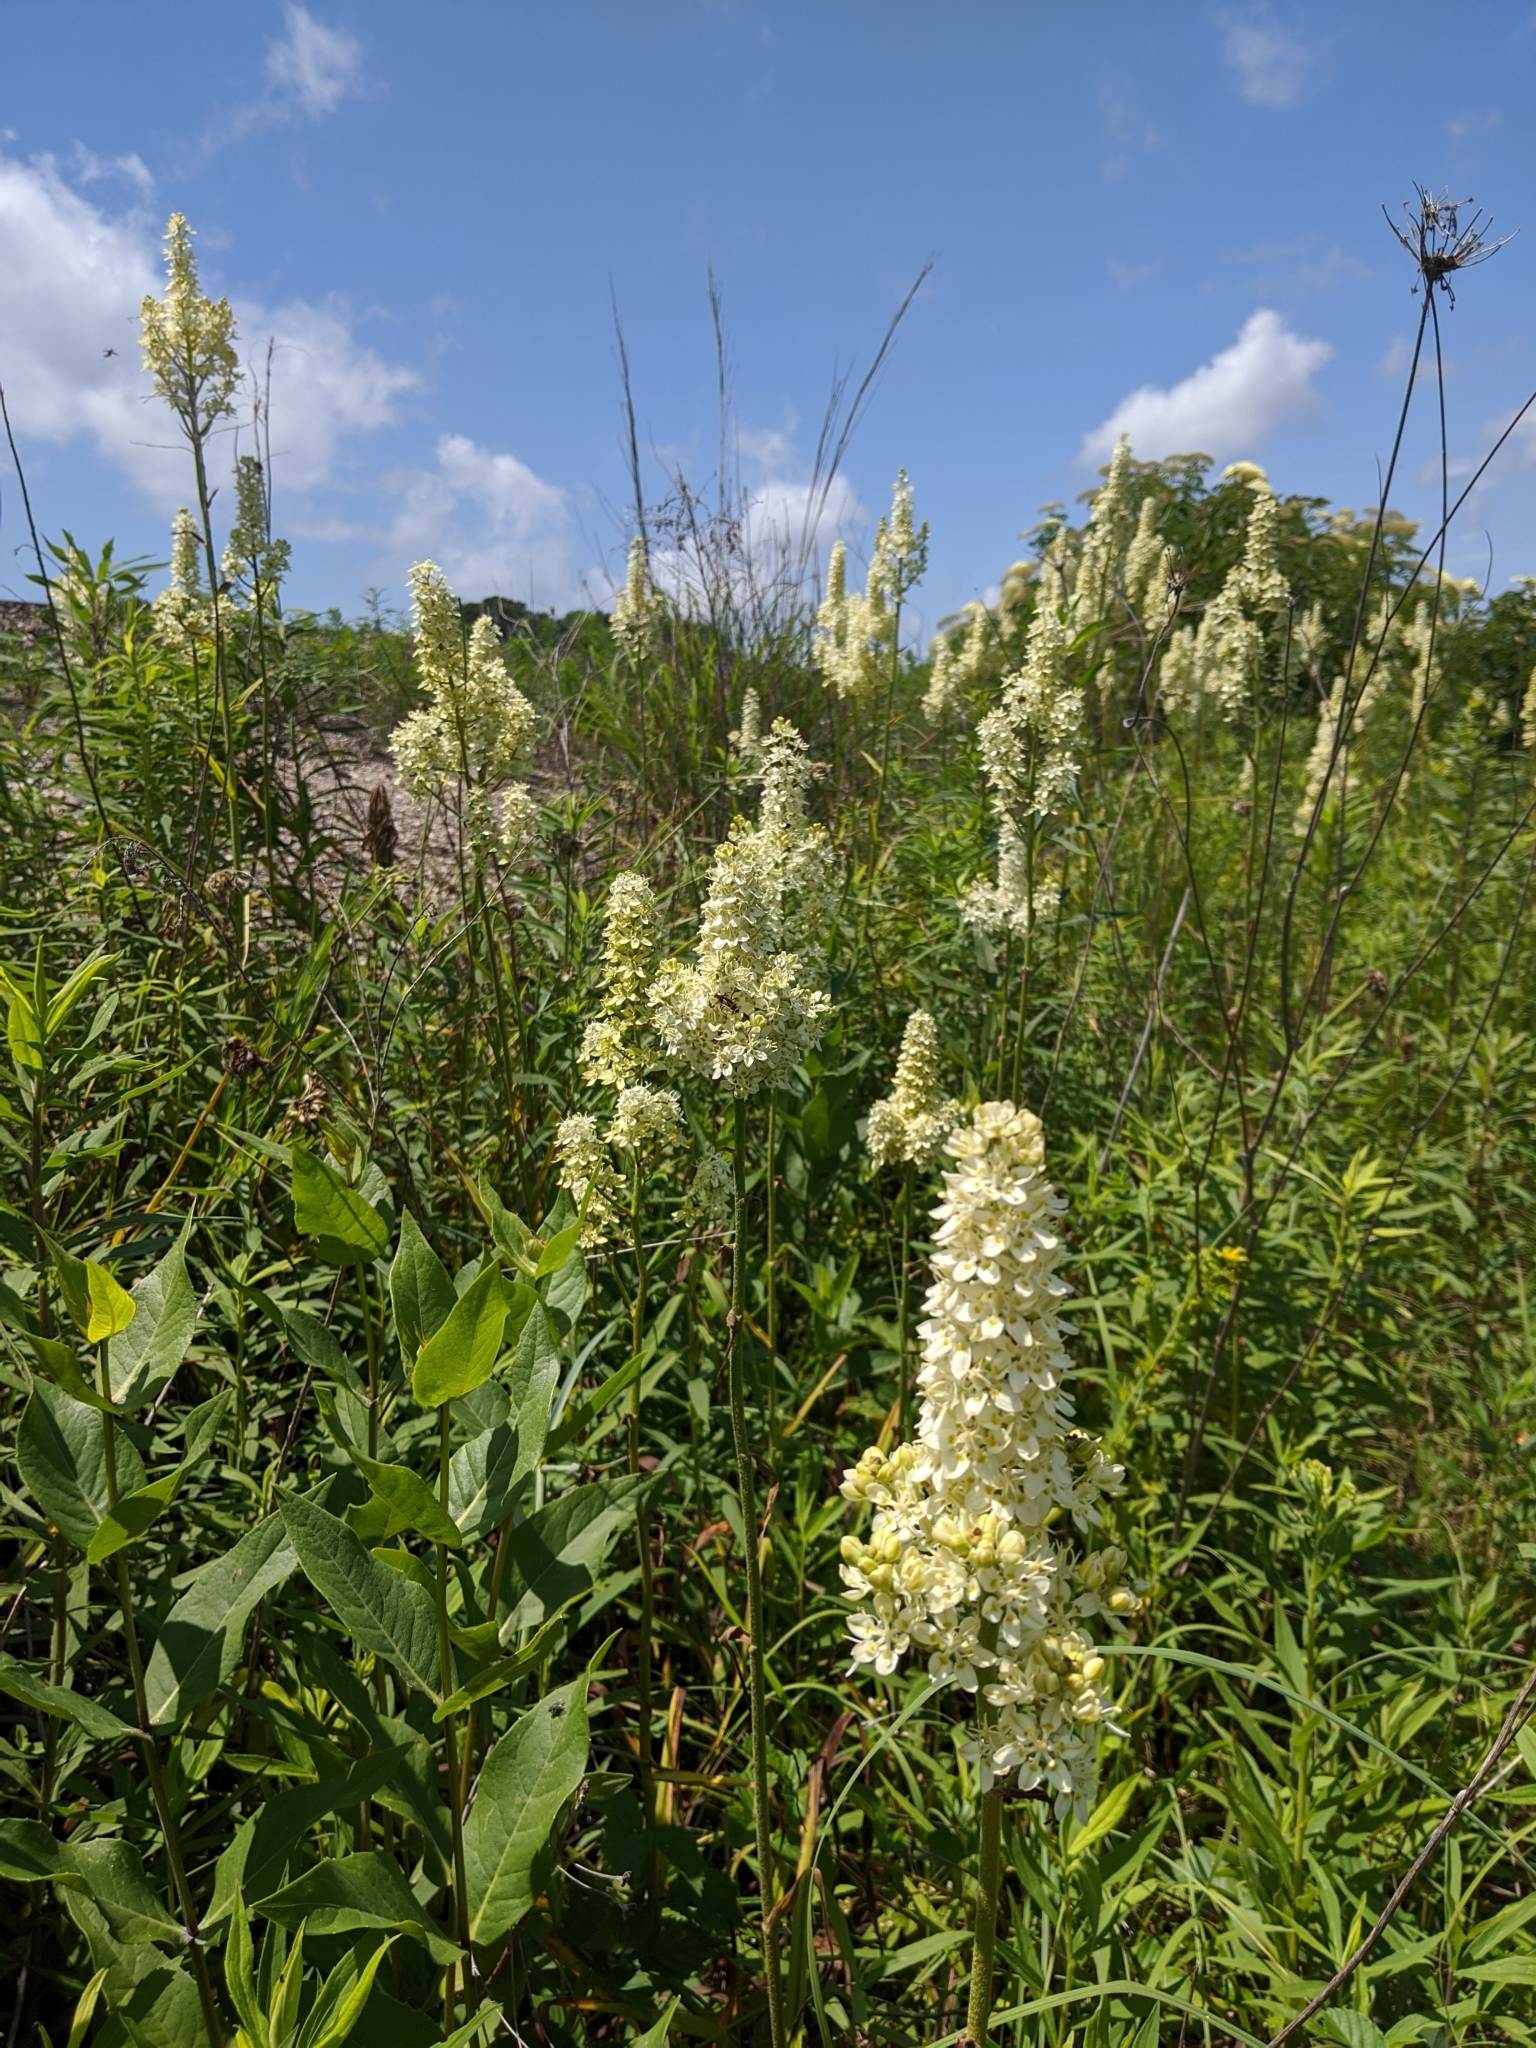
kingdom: Plantae
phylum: Tracheophyta
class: Liliopsida
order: Liliales
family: Melanthiaceae
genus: Melanthium
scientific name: Melanthium virginicum
